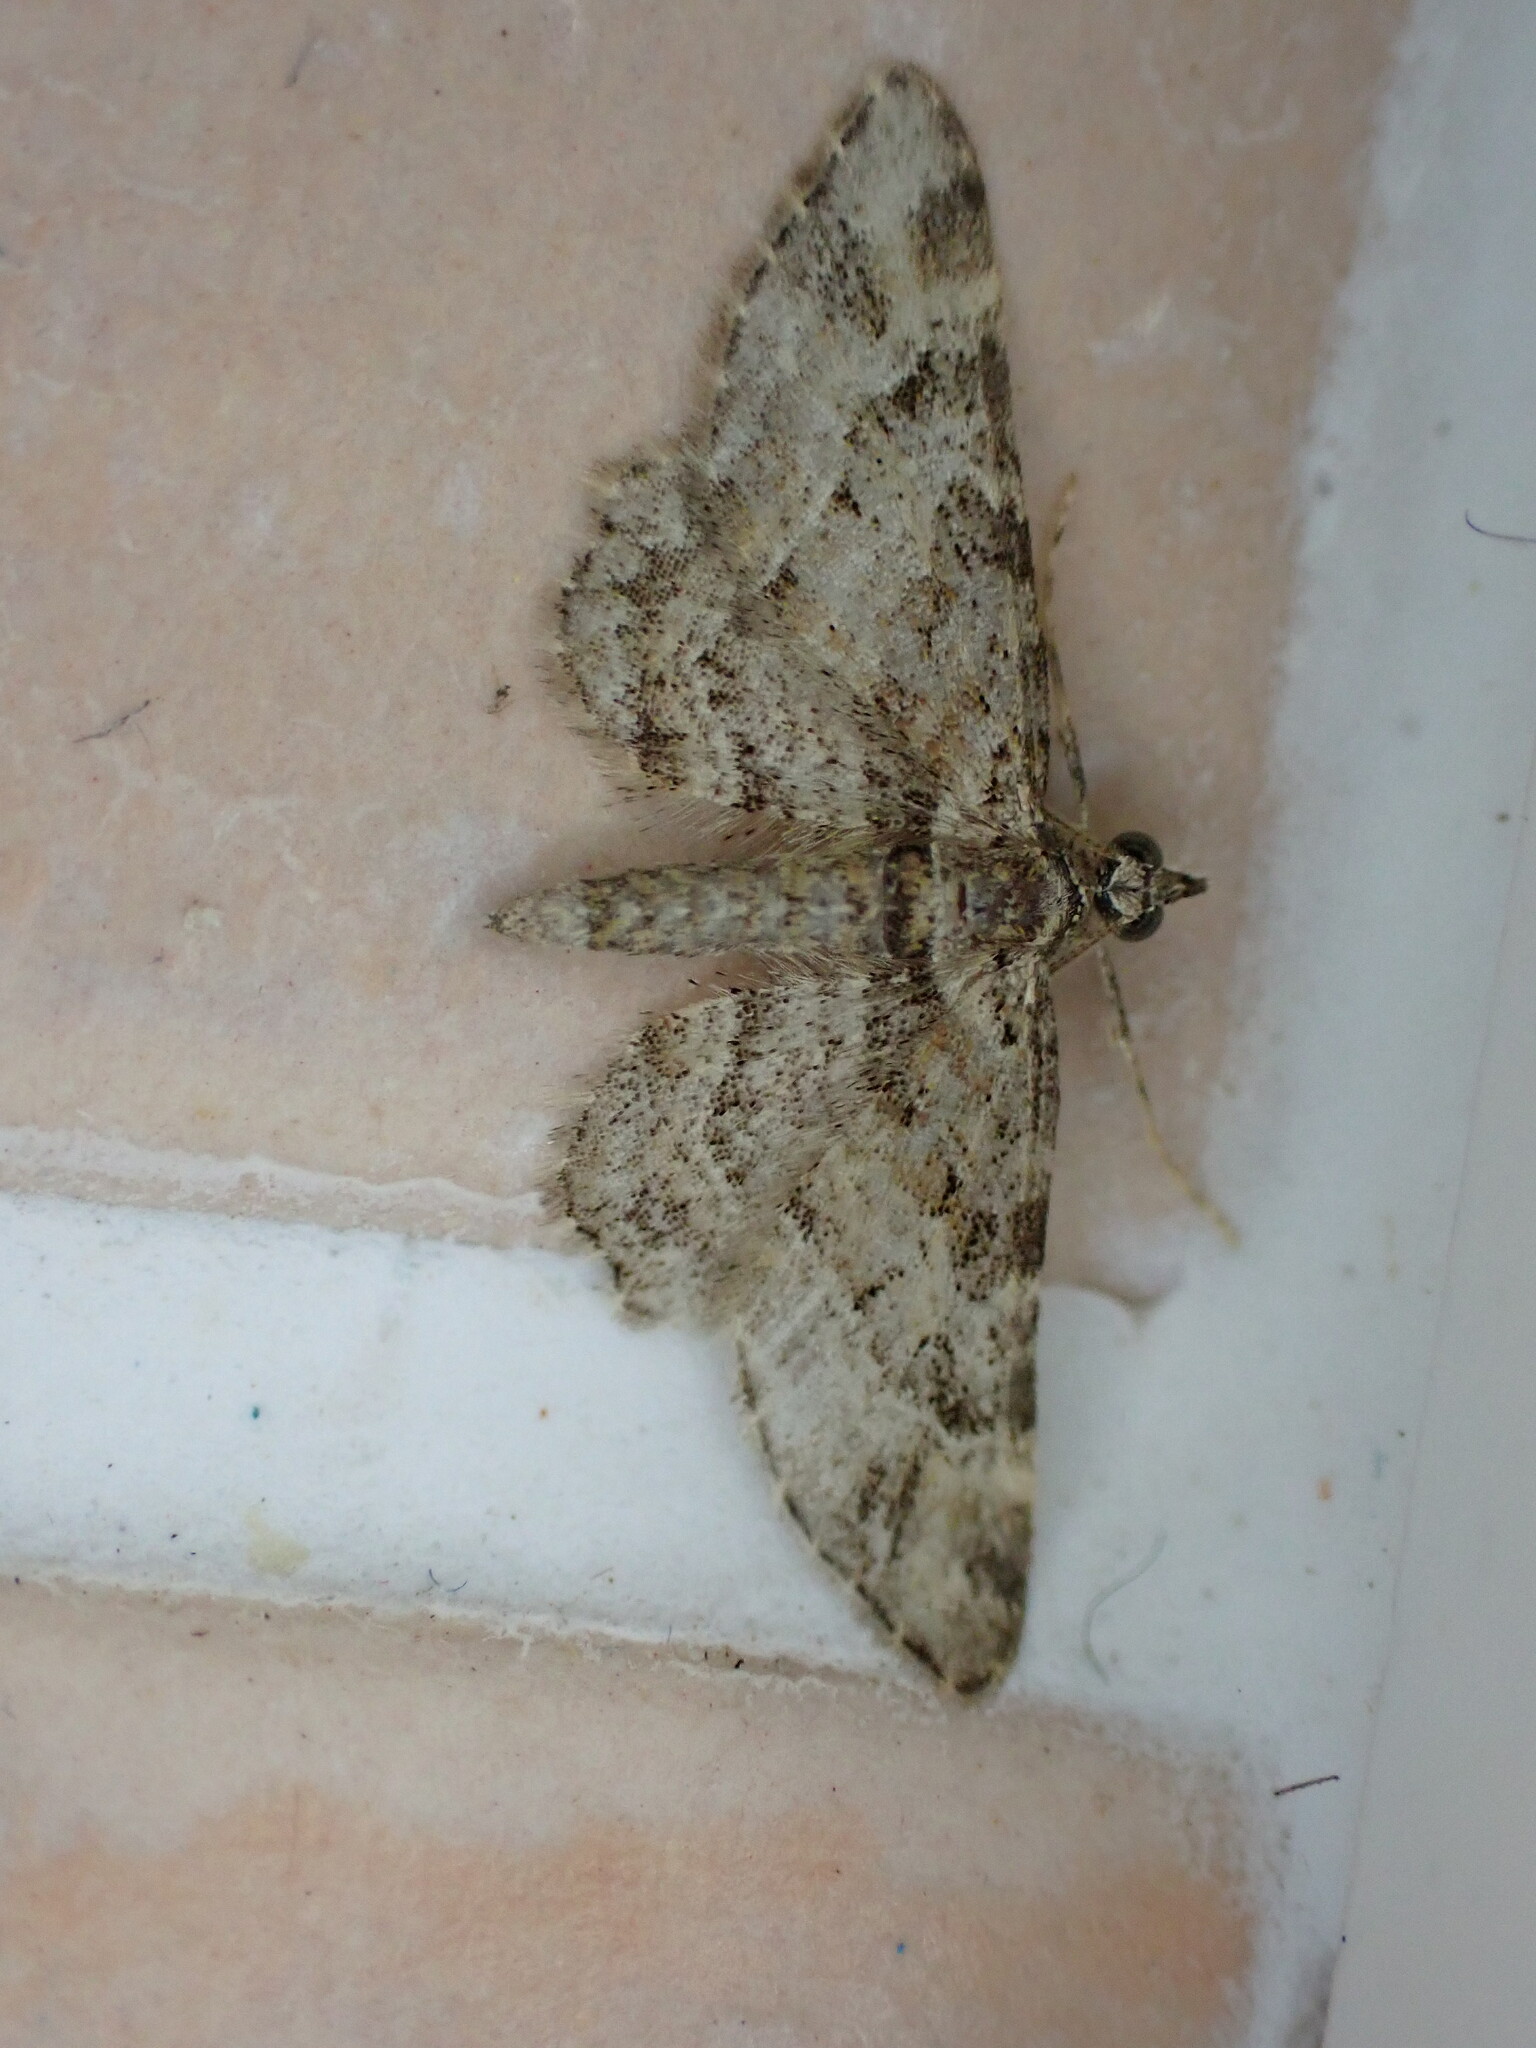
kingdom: Animalia
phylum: Arthropoda
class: Insecta
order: Lepidoptera
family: Geometridae
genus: Gymnoscelis
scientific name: Gymnoscelis rufifasciata
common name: Double-striped pug
